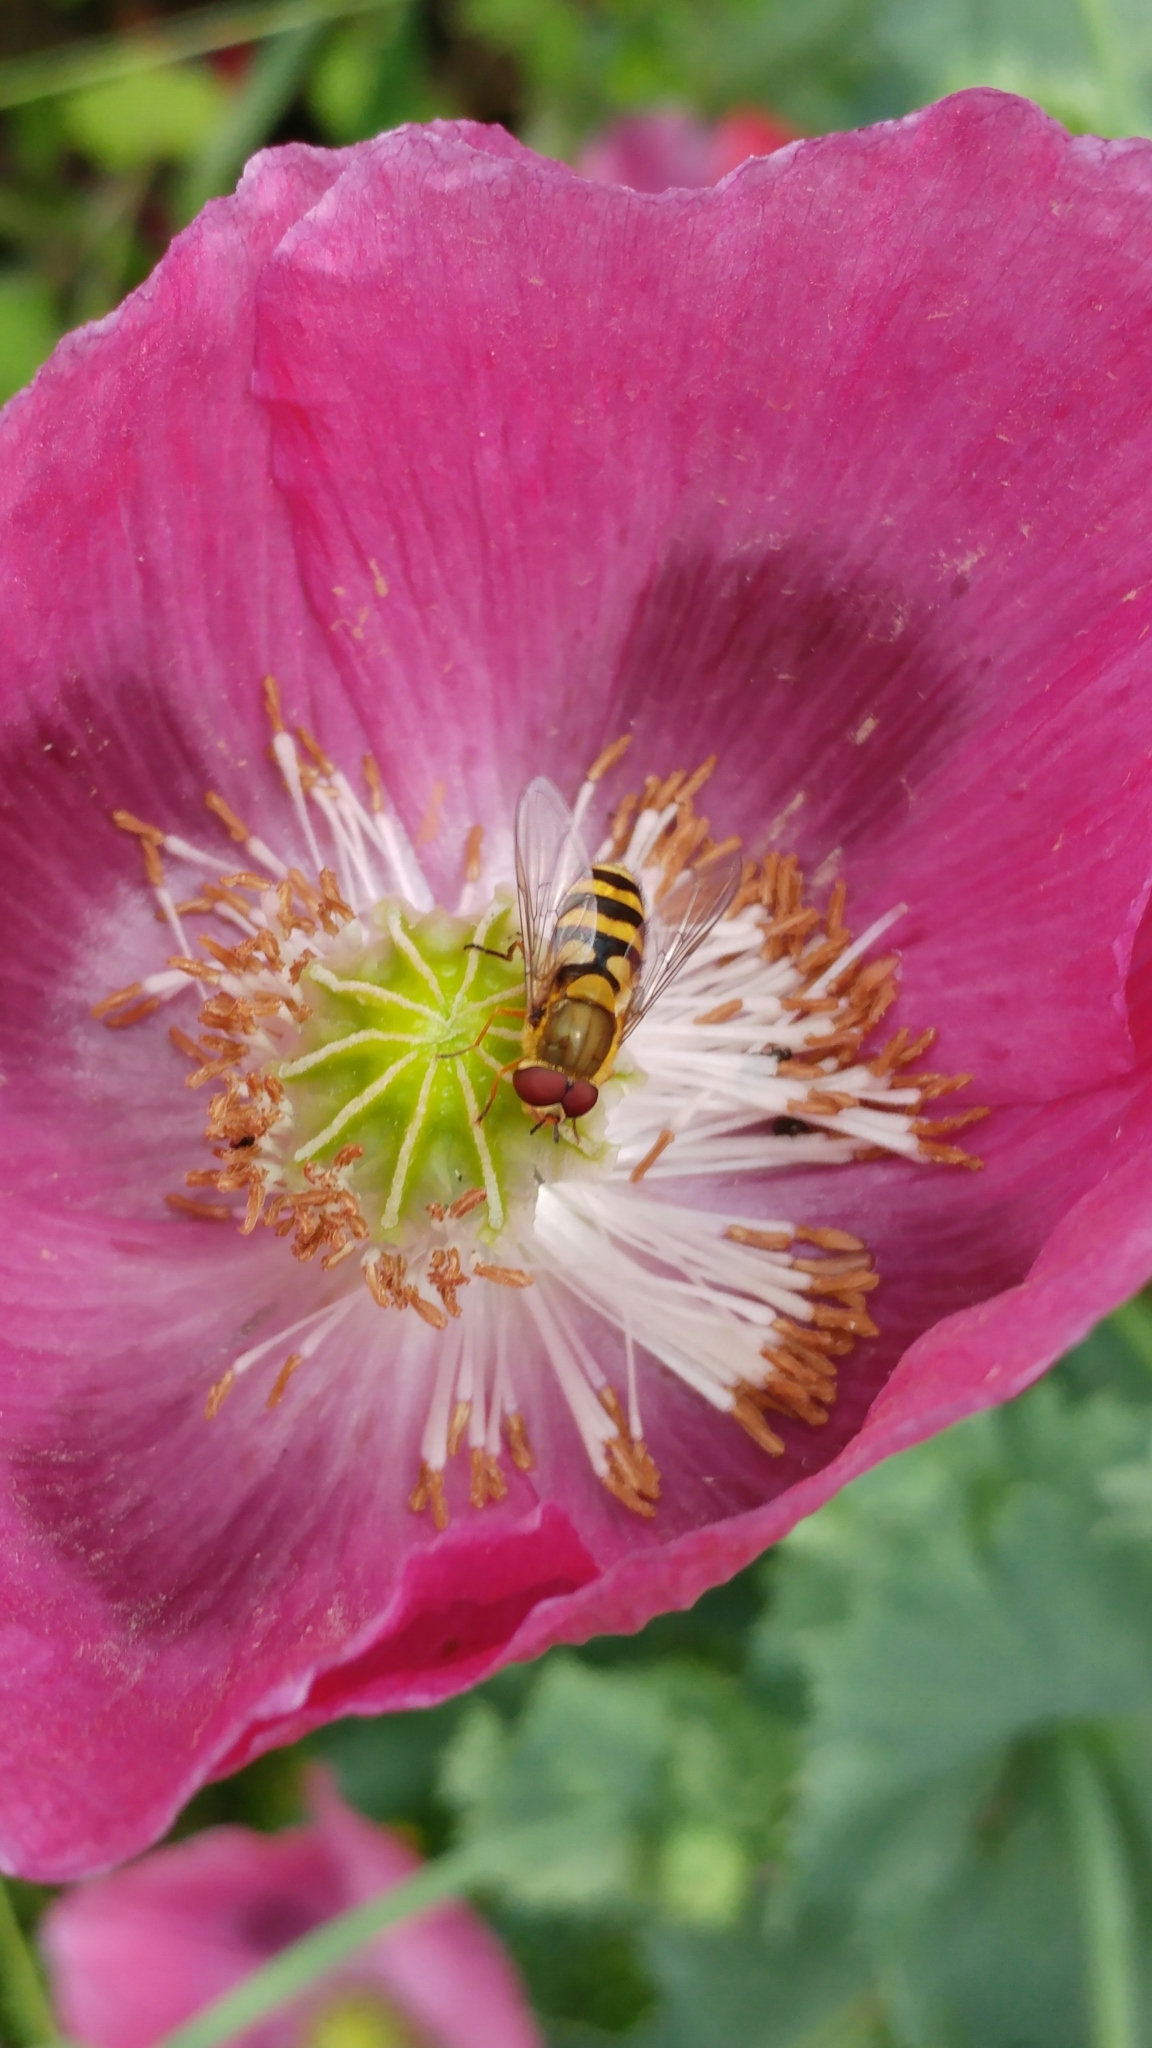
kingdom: Animalia
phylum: Arthropoda
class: Insecta
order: Diptera
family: Syrphidae
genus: Syrphus
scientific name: Syrphus
